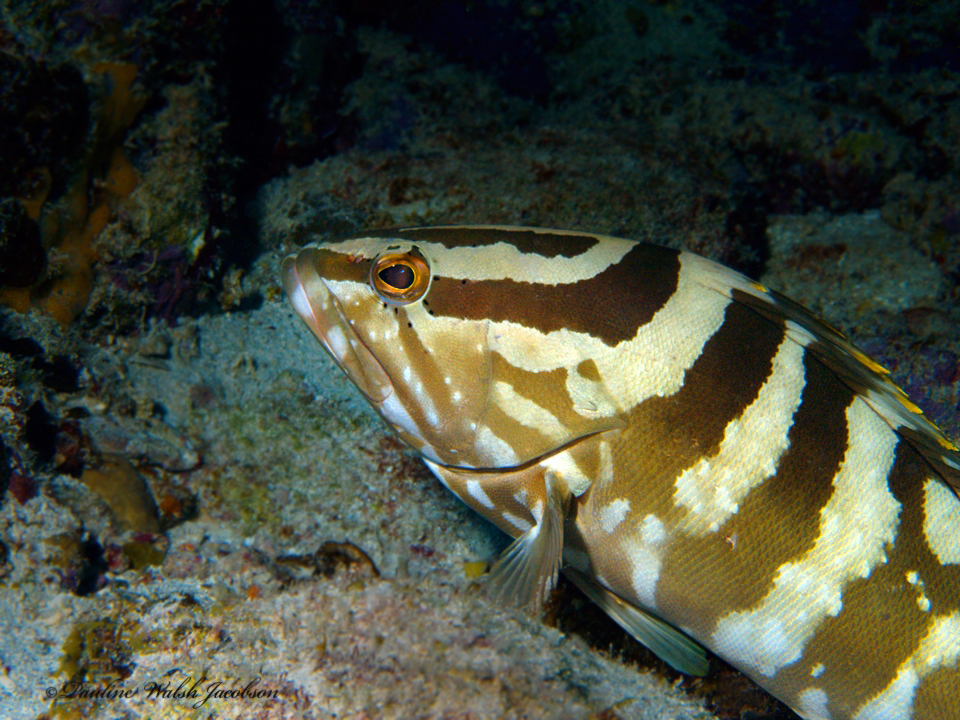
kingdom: Animalia
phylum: Chordata
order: Perciformes
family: Serranidae
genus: Epinephelus
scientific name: Epinephelus striatus
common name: Nassau grouper
